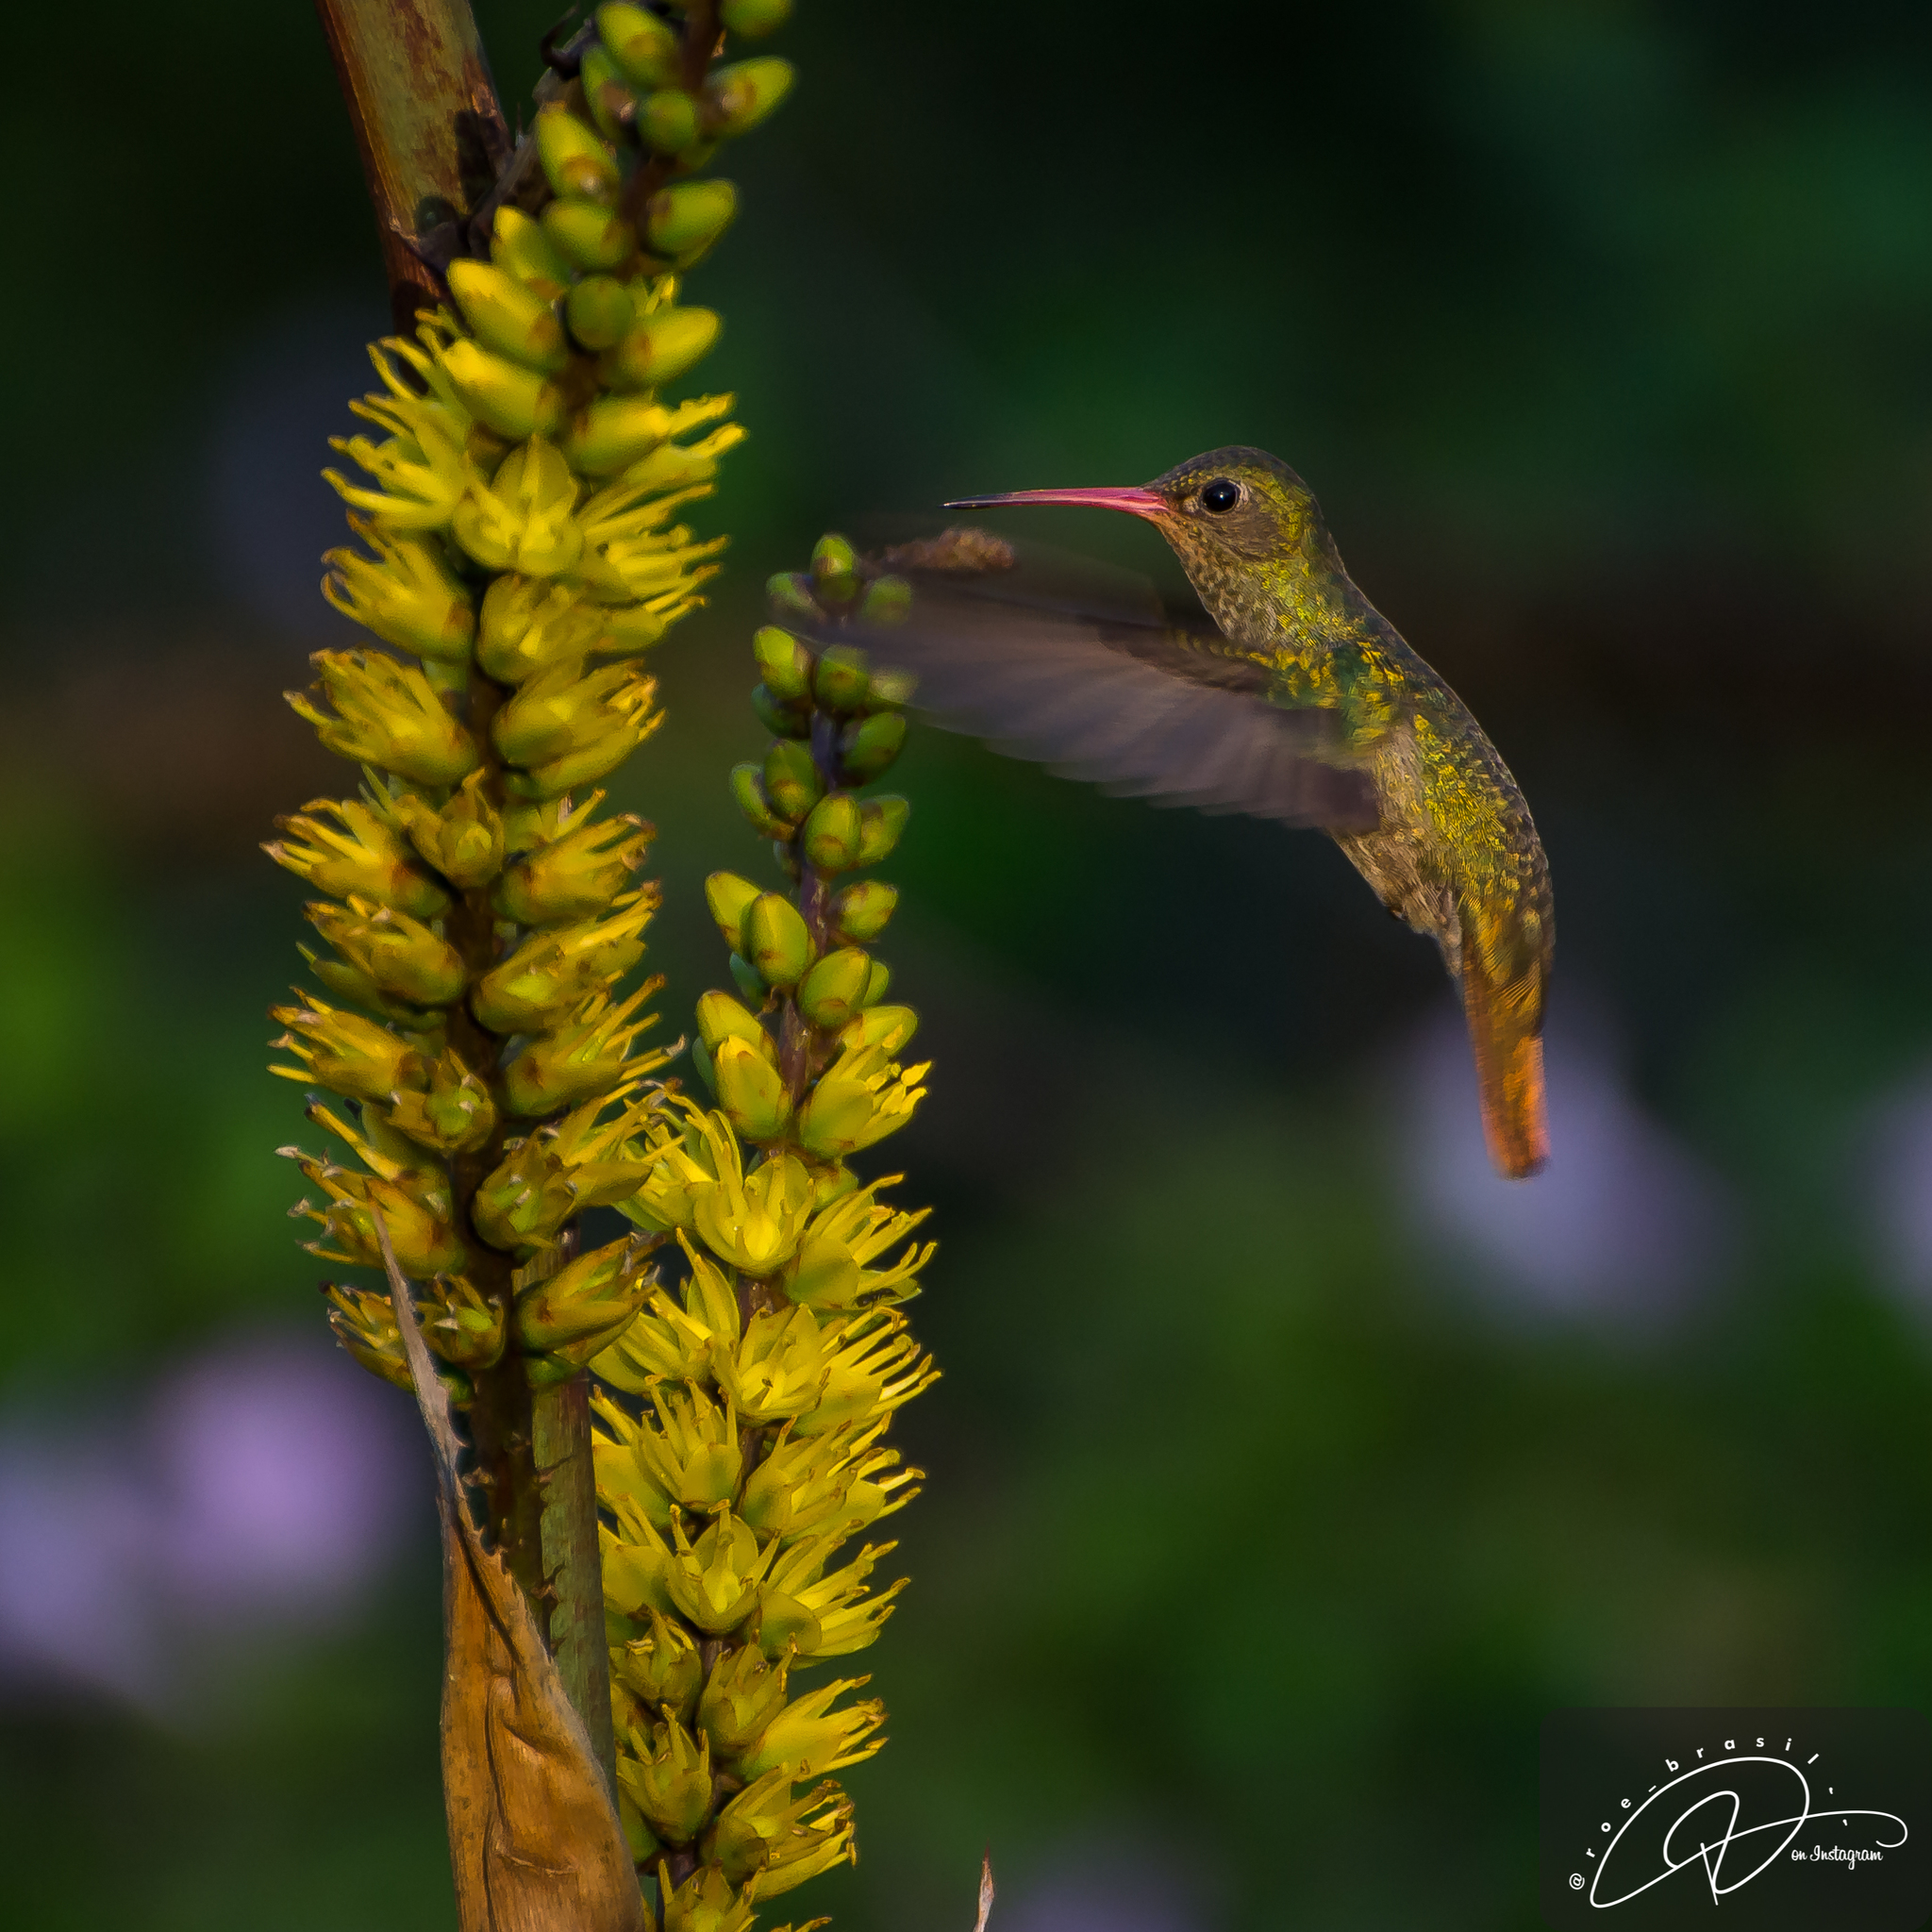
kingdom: Animalia
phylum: Chordata
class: Aves
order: Apodiformes
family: Trochilidae
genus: Hylocharis
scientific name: Hylocharis chrysura
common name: Gilded sapphire
